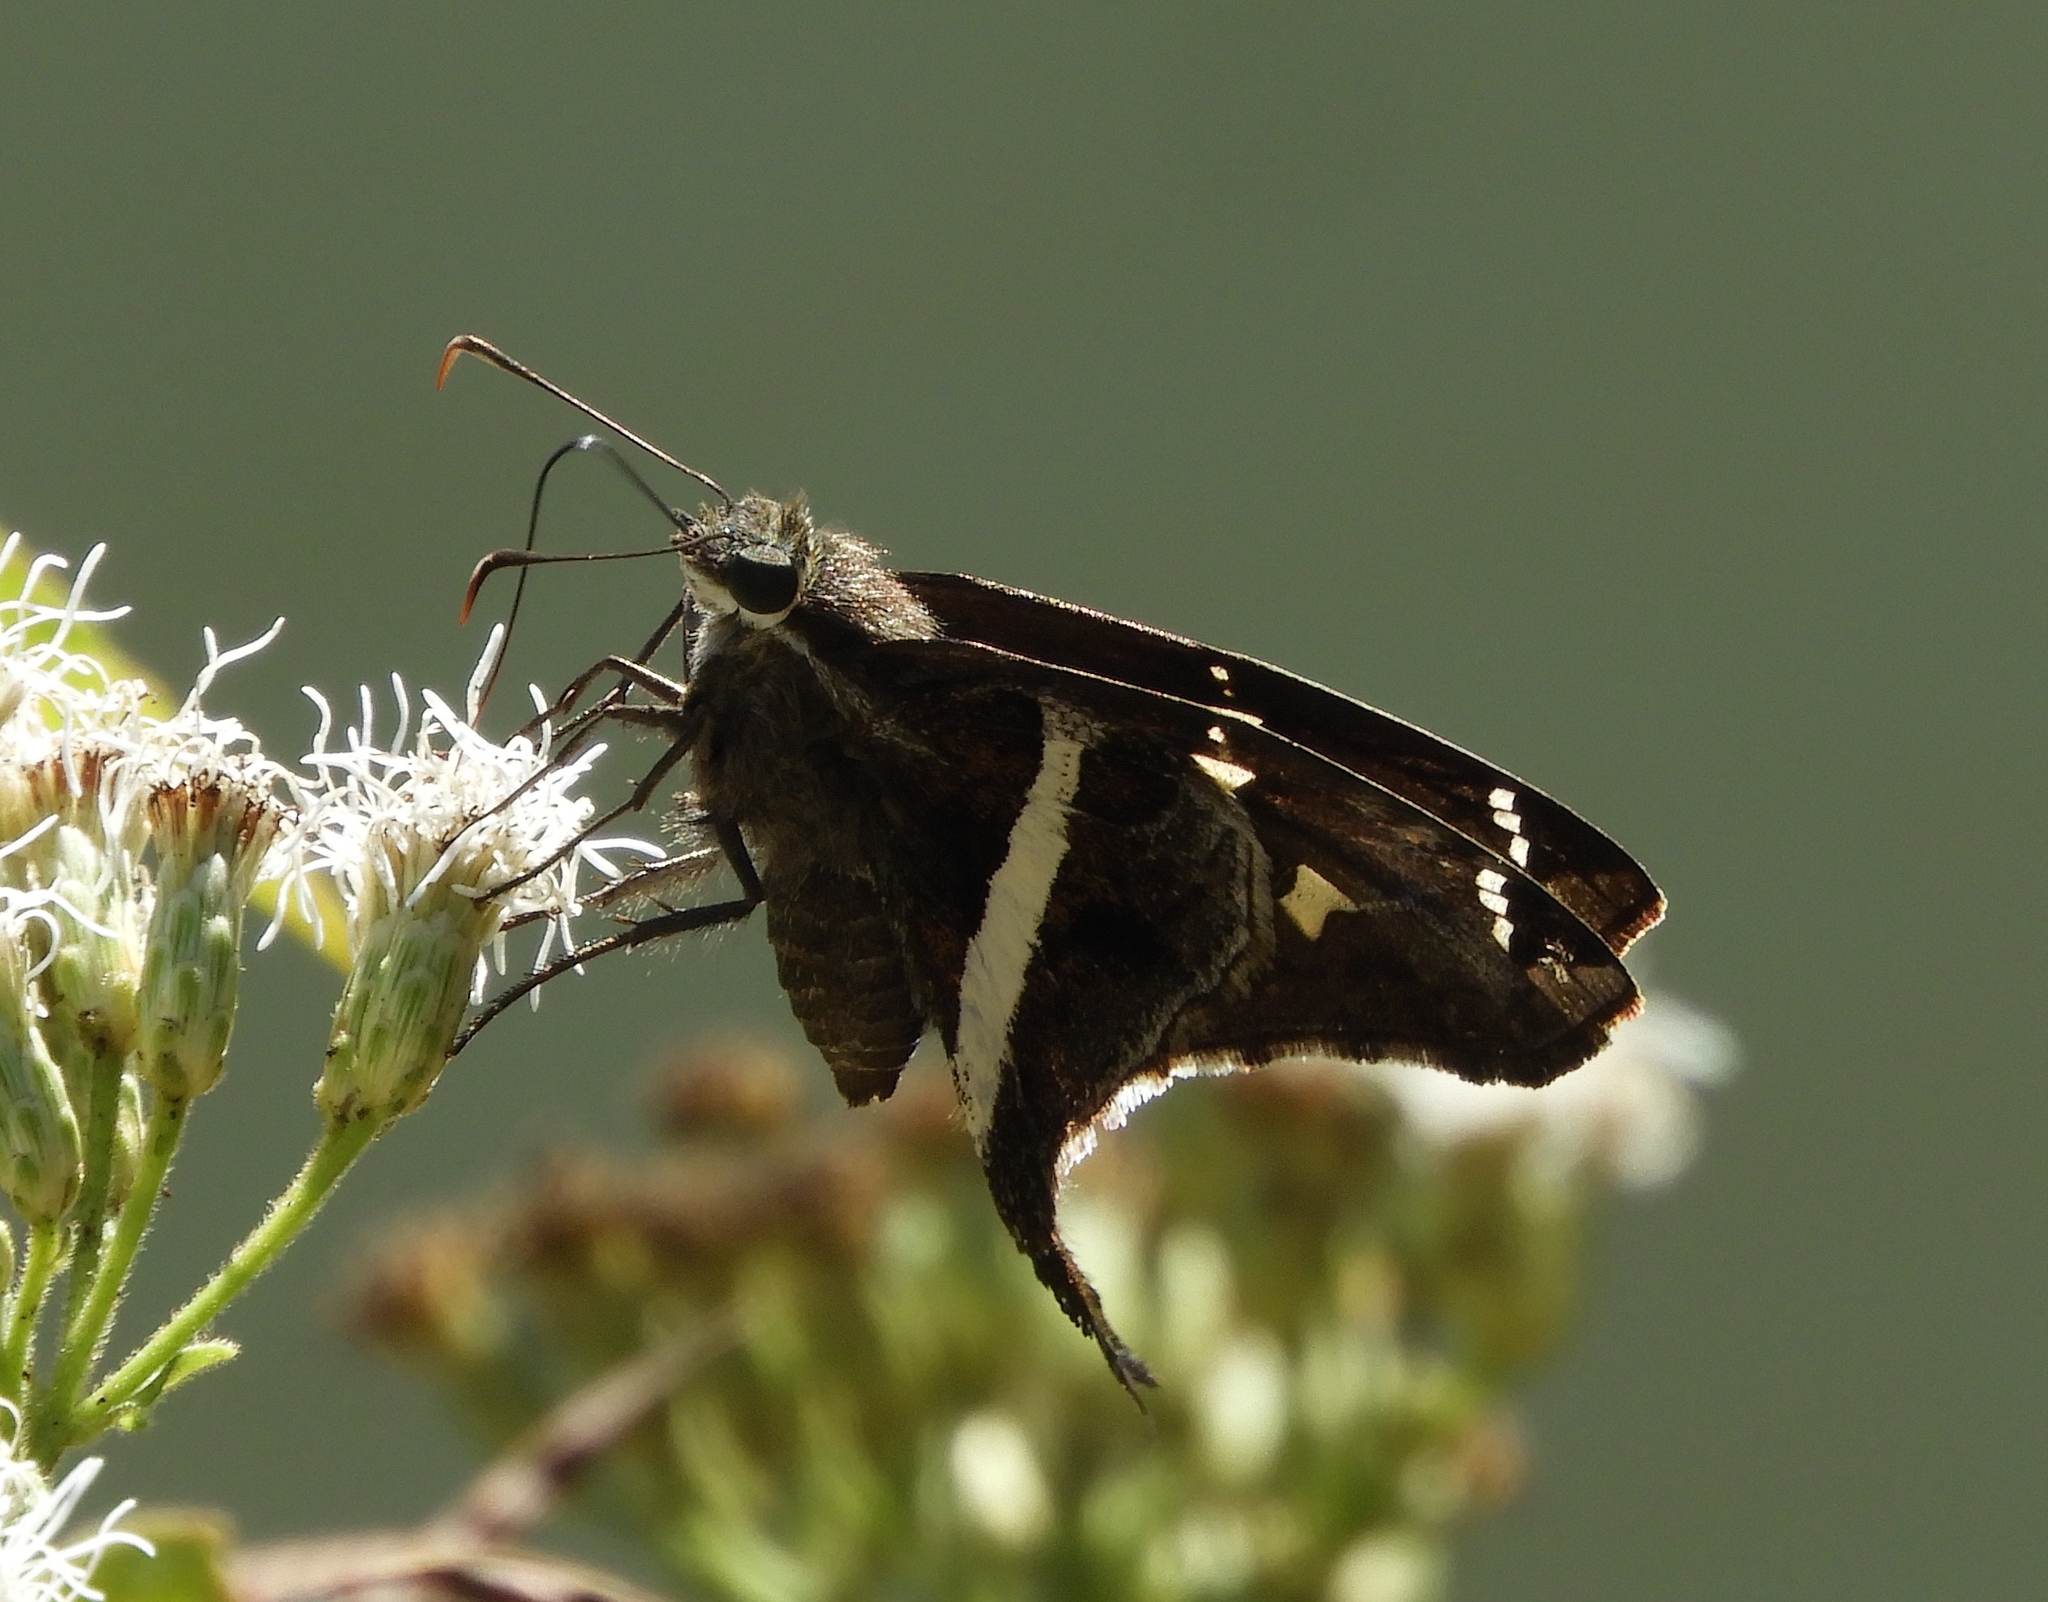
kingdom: Animalia
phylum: Arthropoda
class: Insecta
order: Lepidoptera
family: Hesperiidae
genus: Chioides
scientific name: Chioides catillus
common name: Silverbanded skipper
